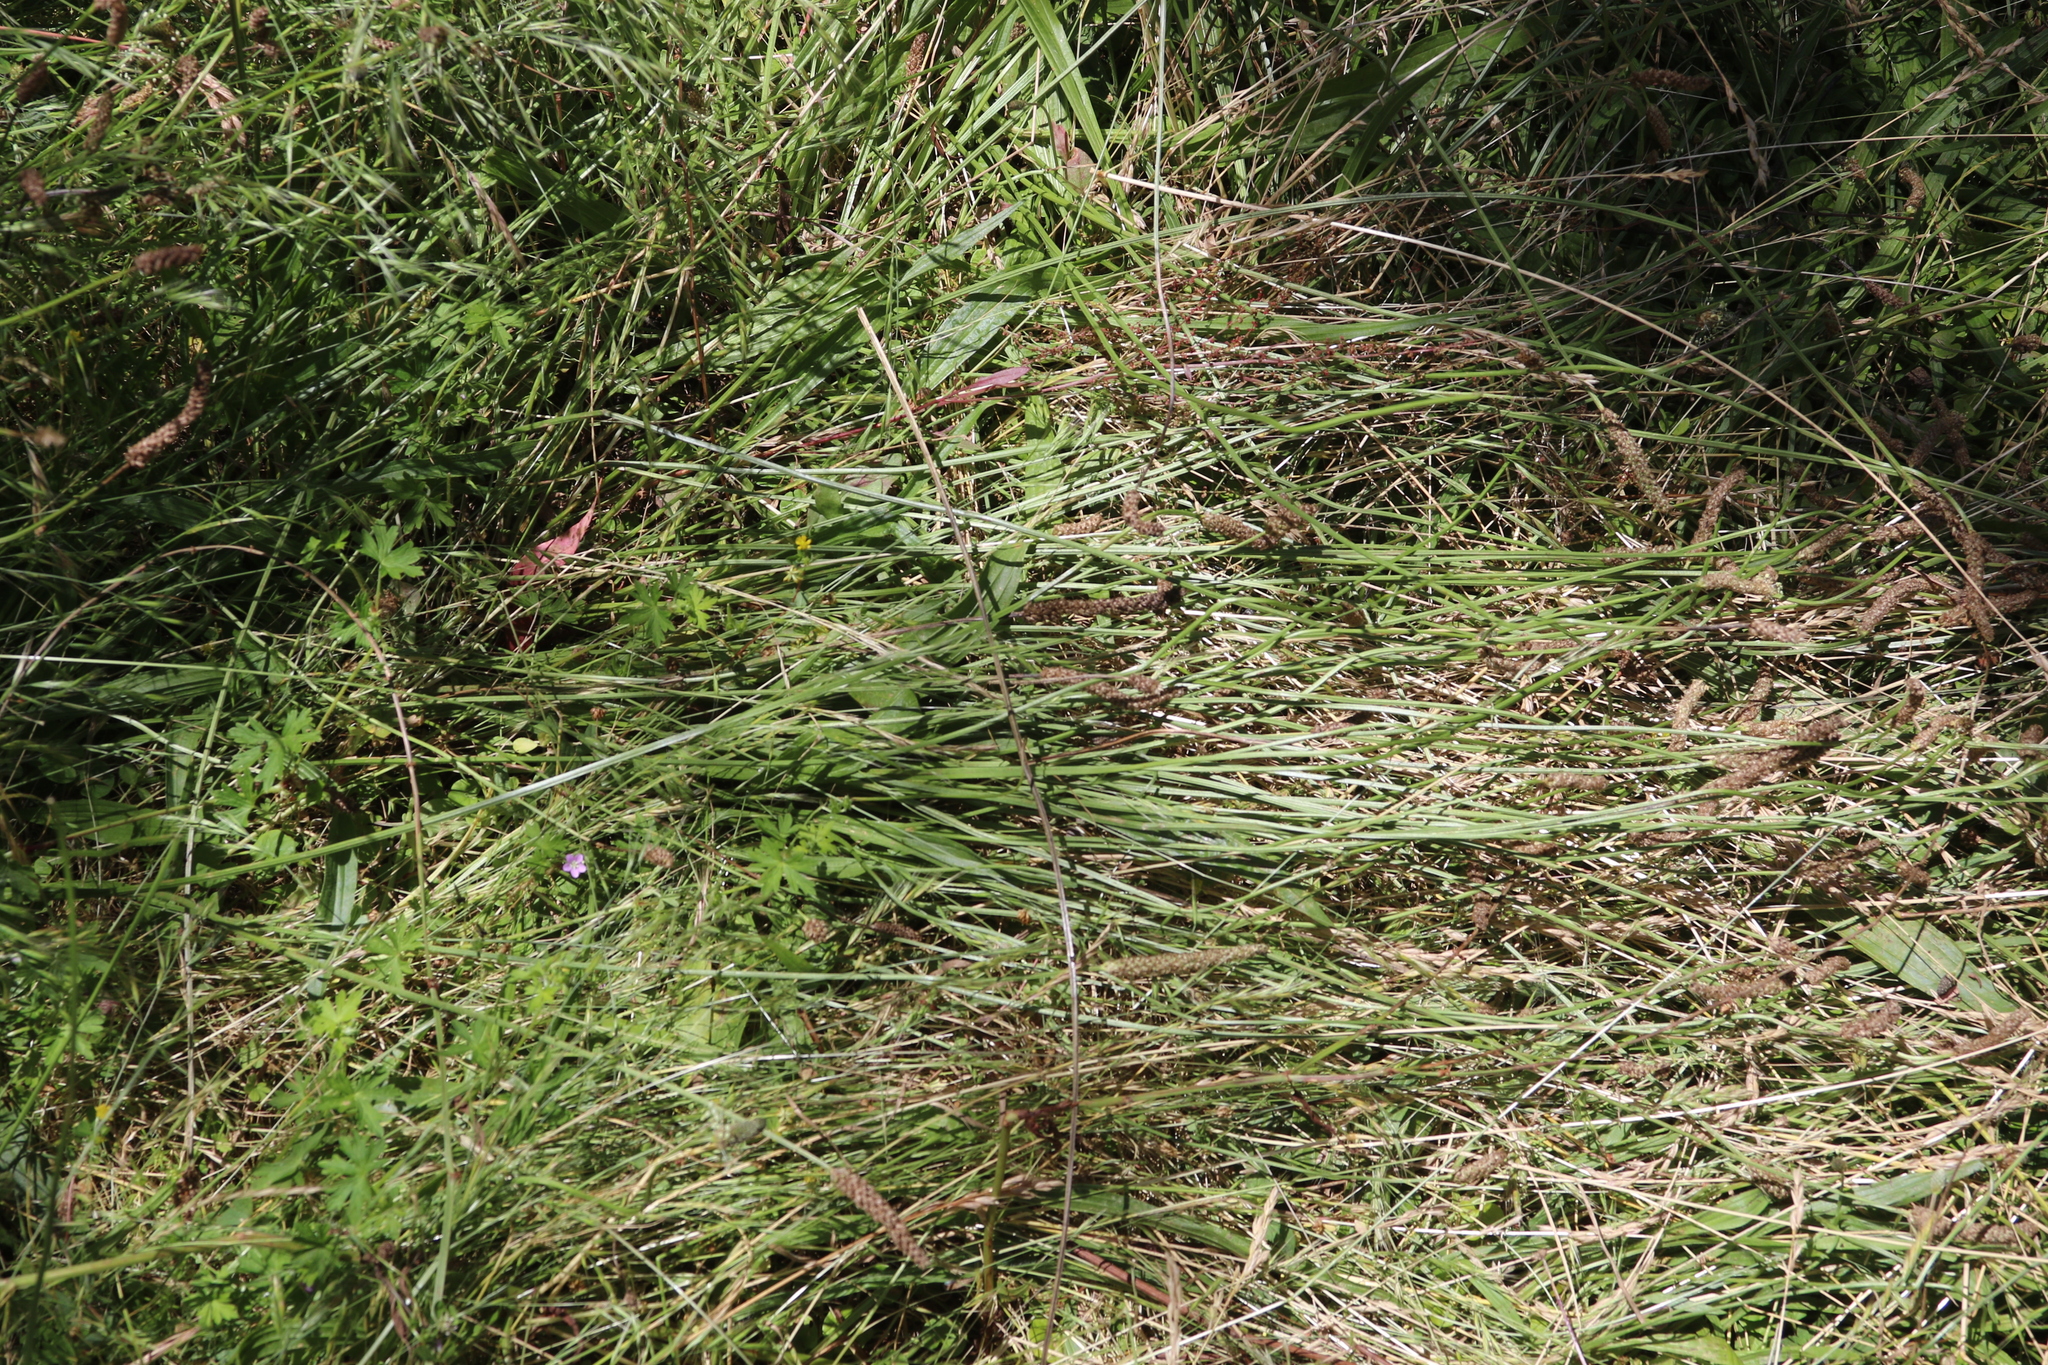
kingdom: Animalia
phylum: Chordata
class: Squamata
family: Scincidae
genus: Tiliqua
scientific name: Tiliqua scincoides
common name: Common bluetongue
